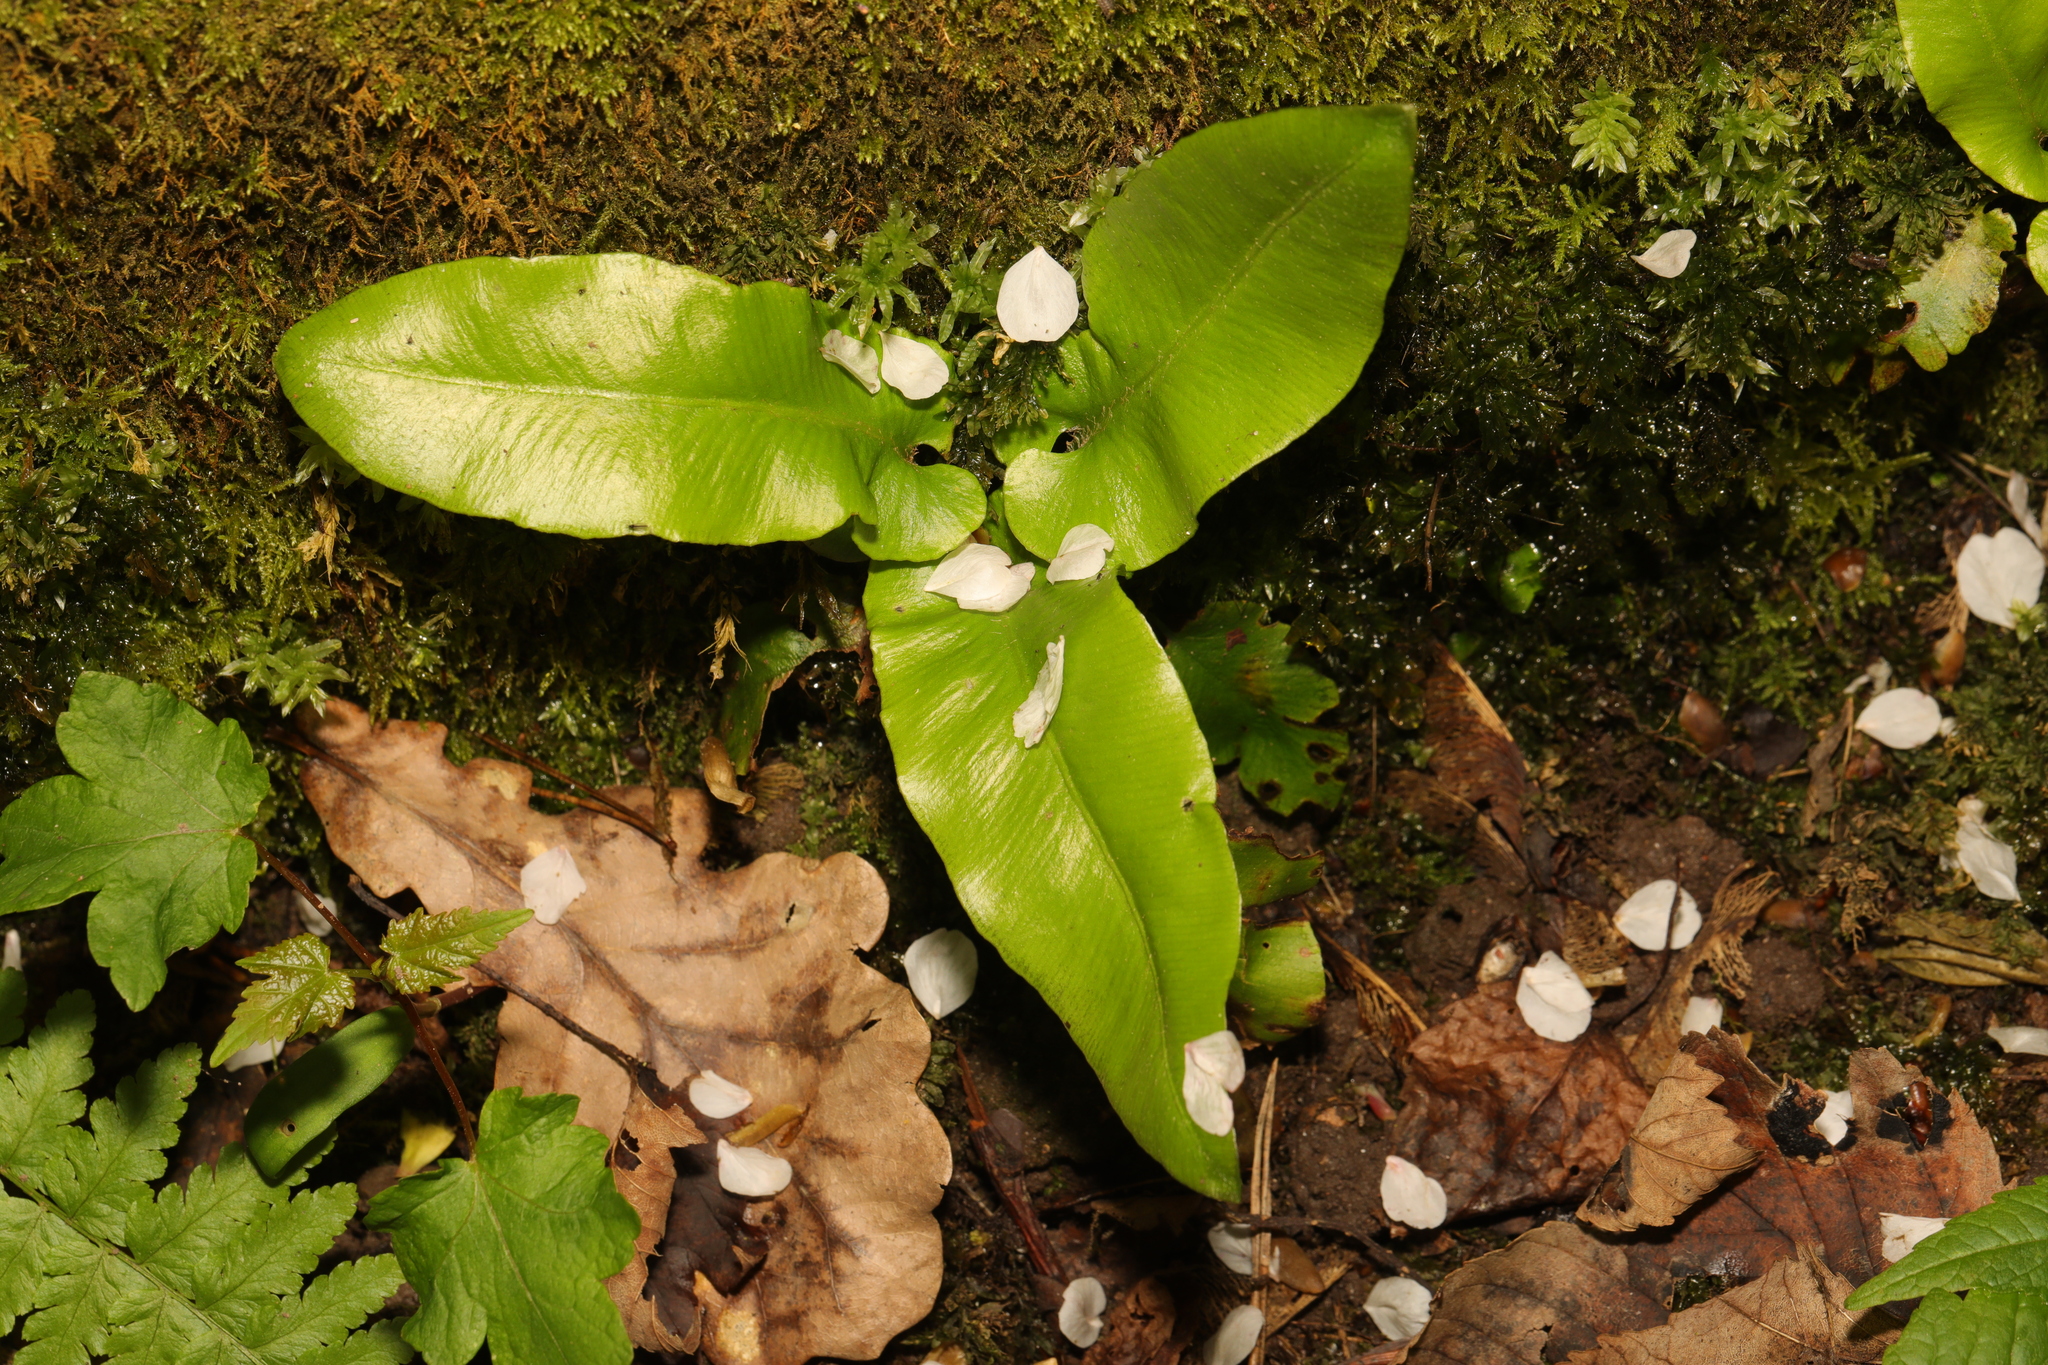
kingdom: Plantae
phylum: Tracheophyta
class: Polypodiopsida
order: Polypodiales
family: Aspleniaceae
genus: Asplenium
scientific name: Asplenium scolopendrium
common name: Hart's-tongue fern
